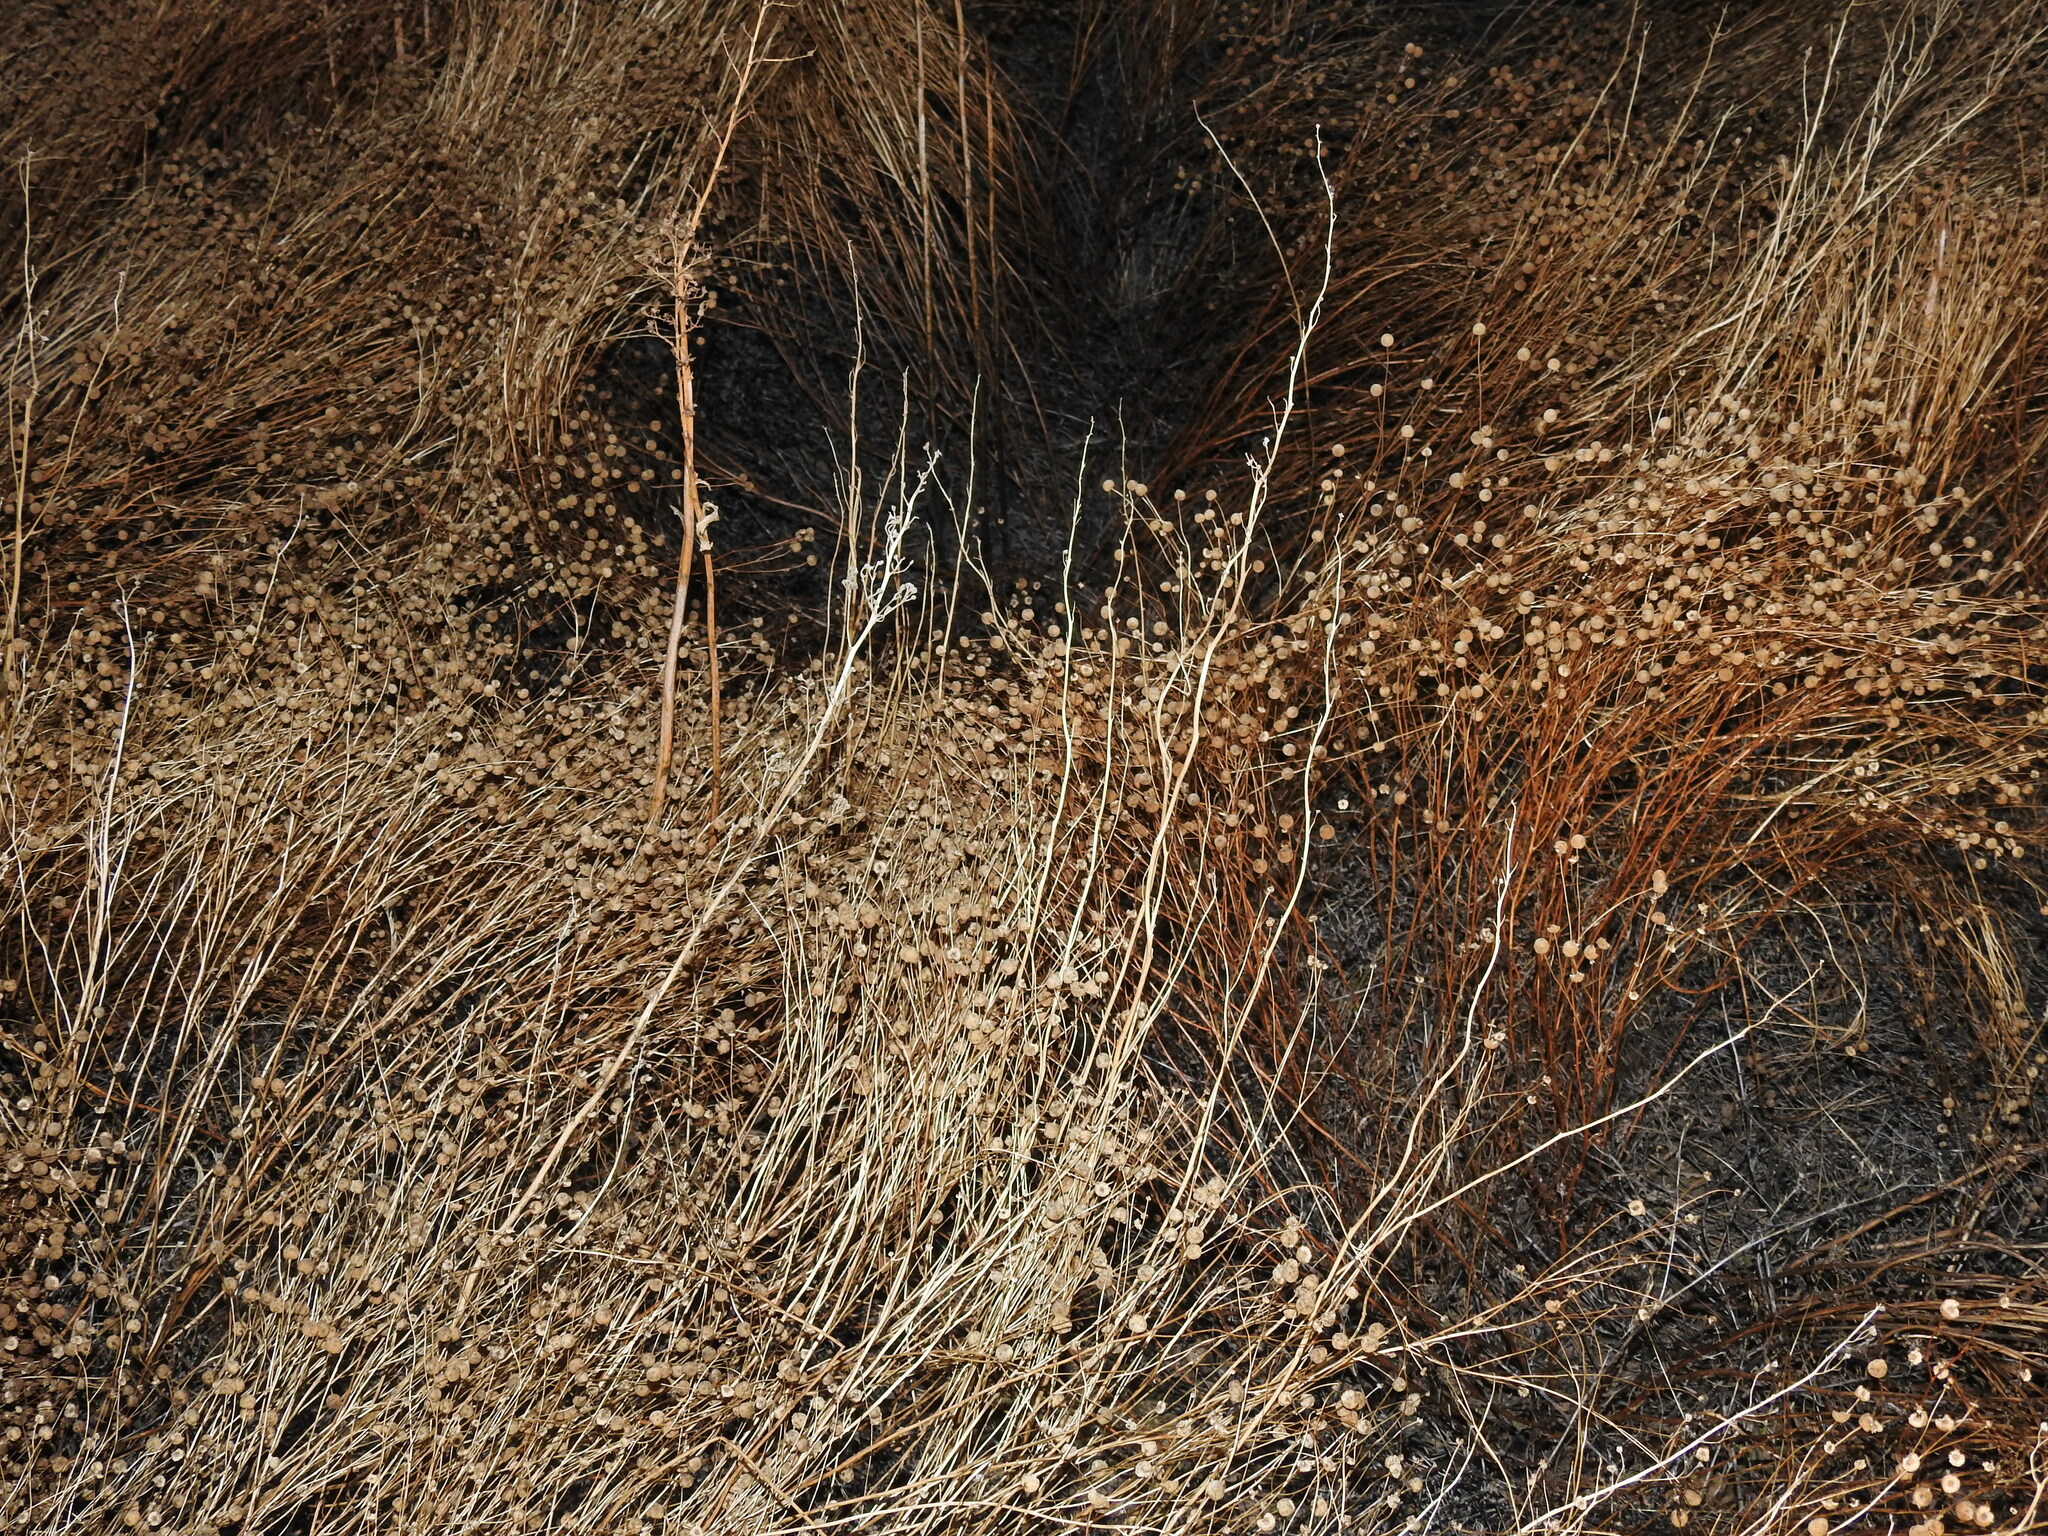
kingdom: Plantae
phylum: Tracheophyta
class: Magnoliopsida
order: Asterales
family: Asteraceae
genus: Oncosiphon
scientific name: Oncosiphon pilulifer
